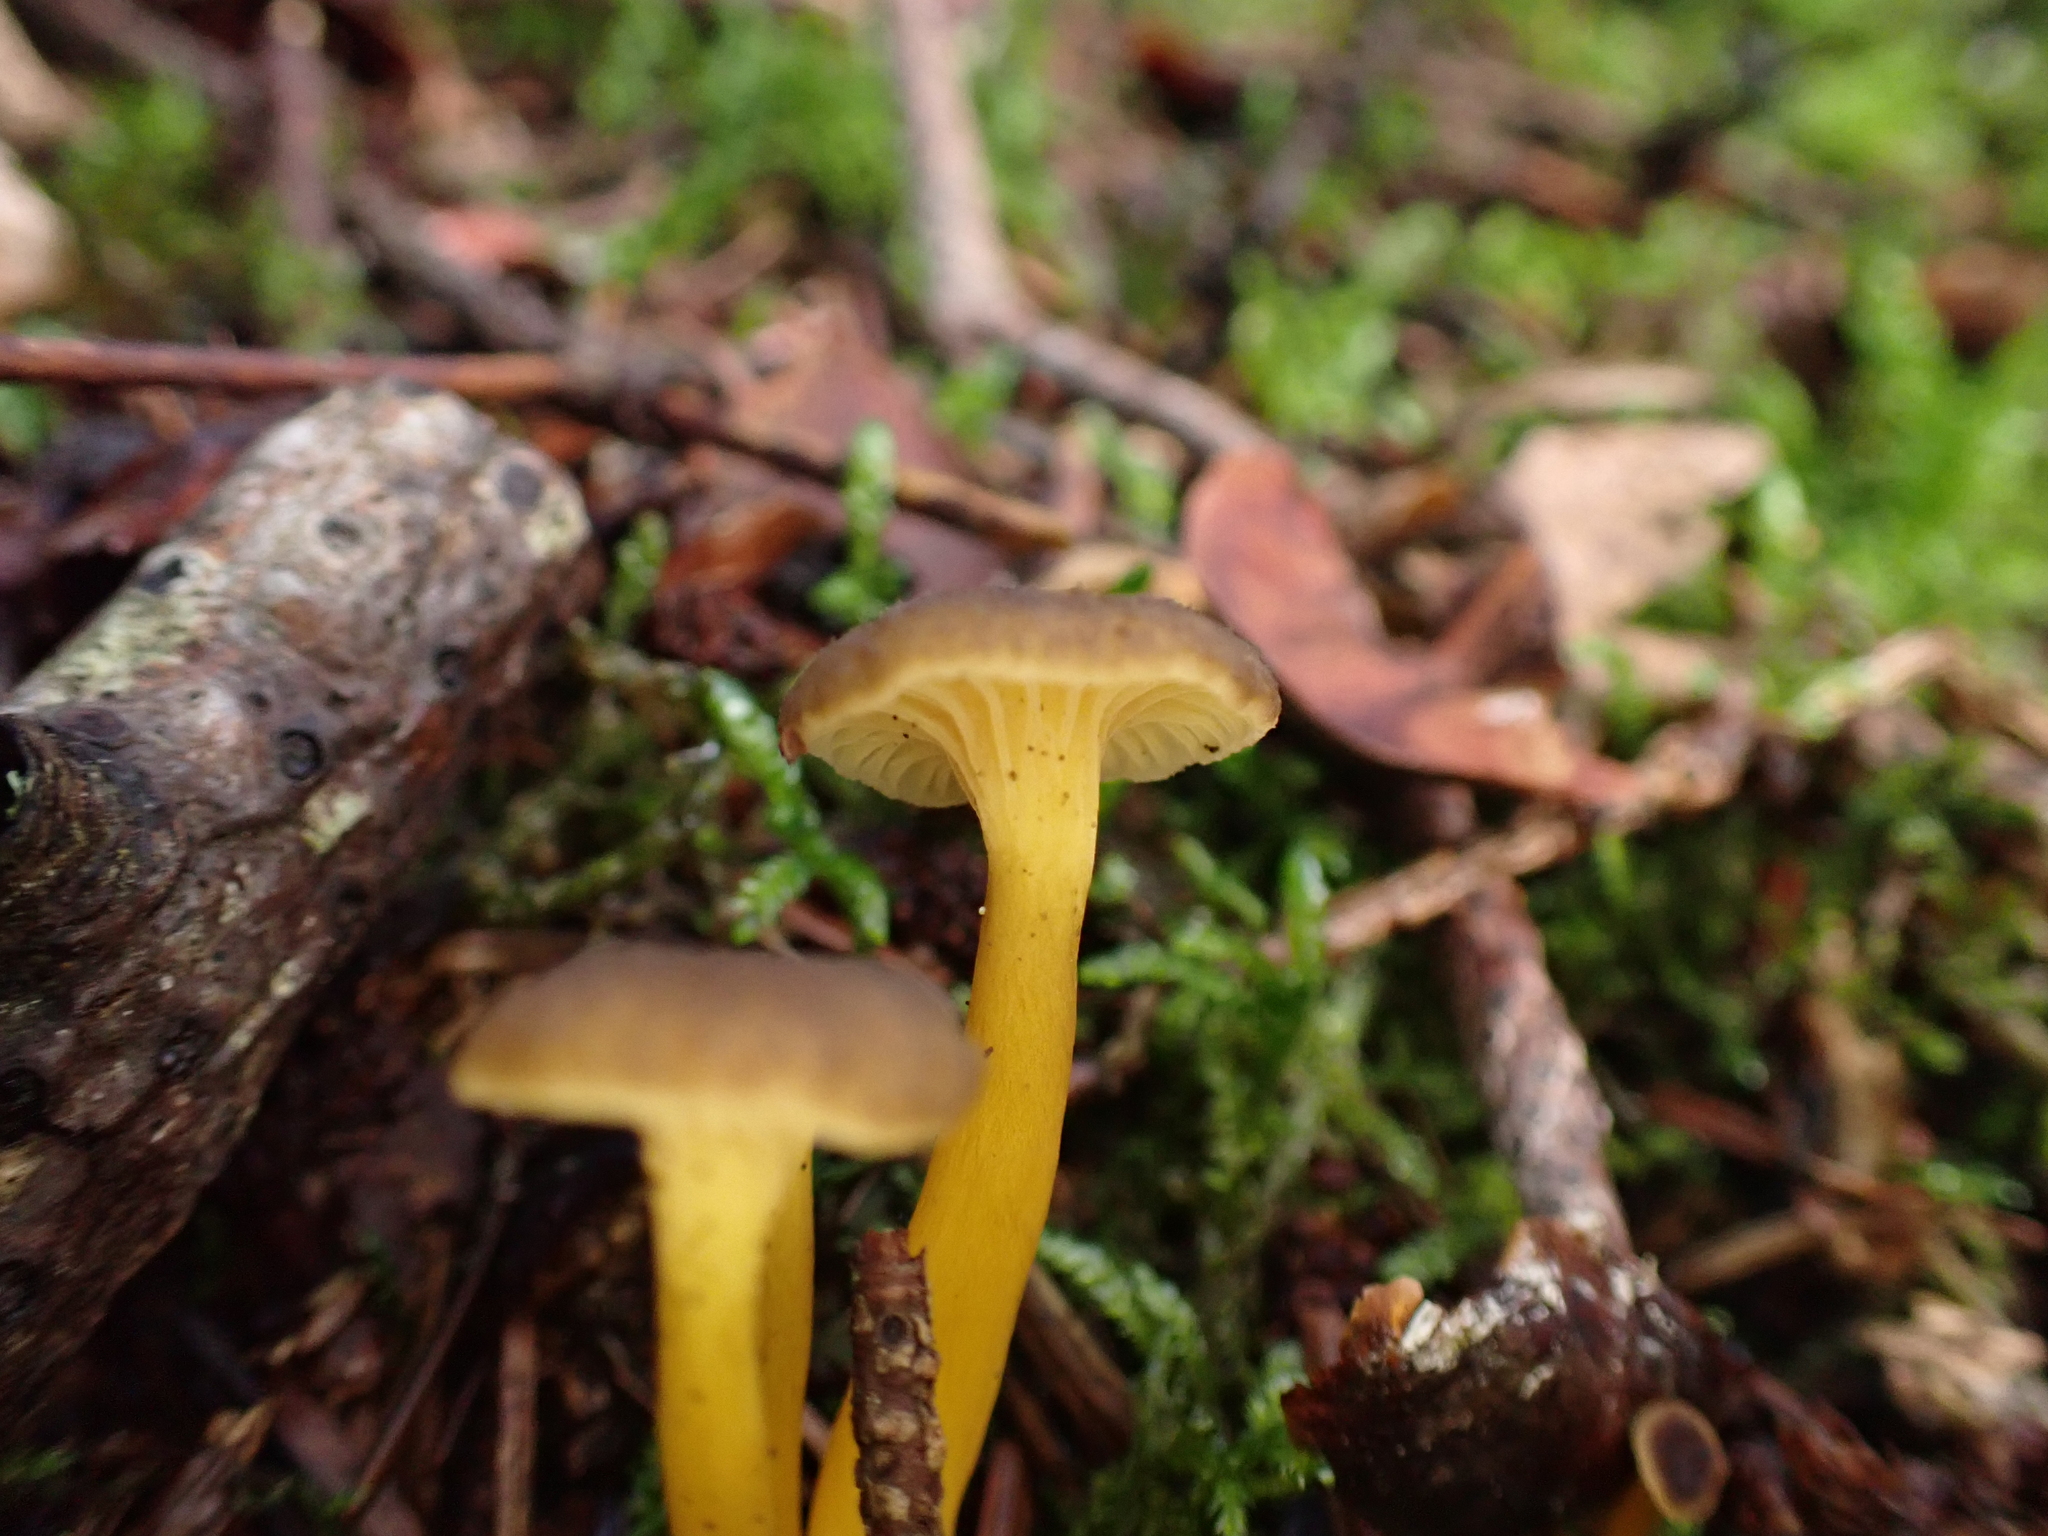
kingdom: Fungi
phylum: Basidiomycota
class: Agaricomycetes
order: Cantharellales
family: Hydnaceae
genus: Craterellus
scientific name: Craterellus tubaeformis
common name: Yellowfoot
